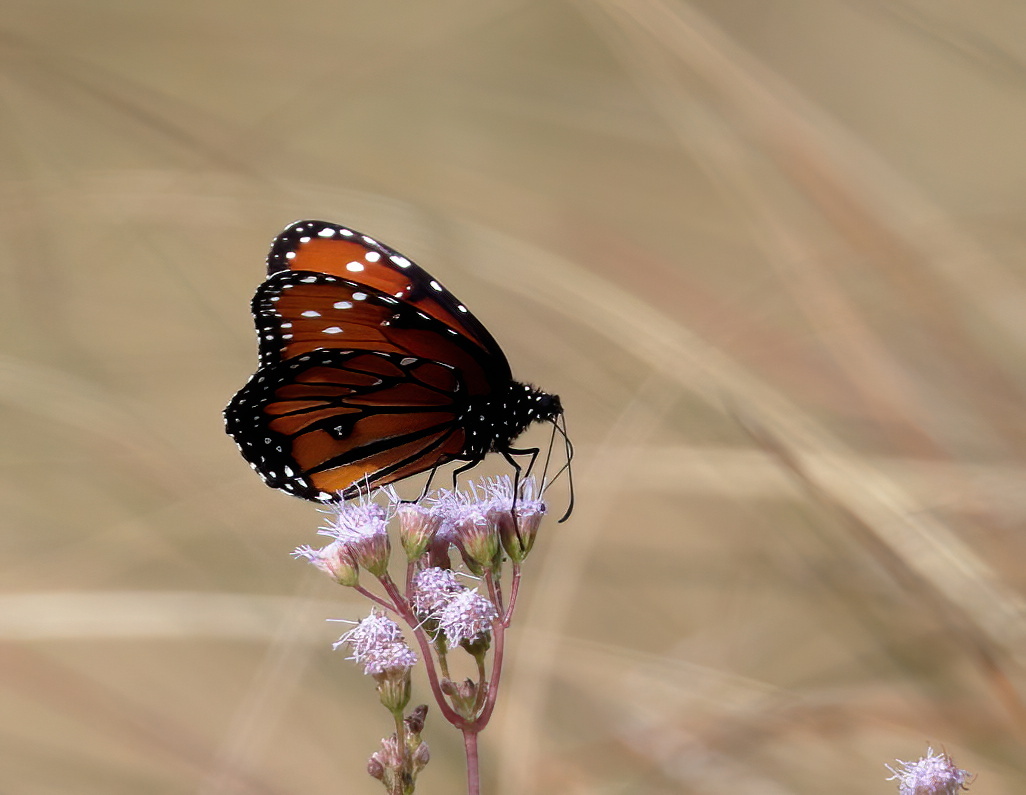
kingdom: Animalia
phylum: Arthropoda
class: Insecta
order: Lepidoptera
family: Nymphalidae
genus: Danaus
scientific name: Danaus gilippus
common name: Queen
